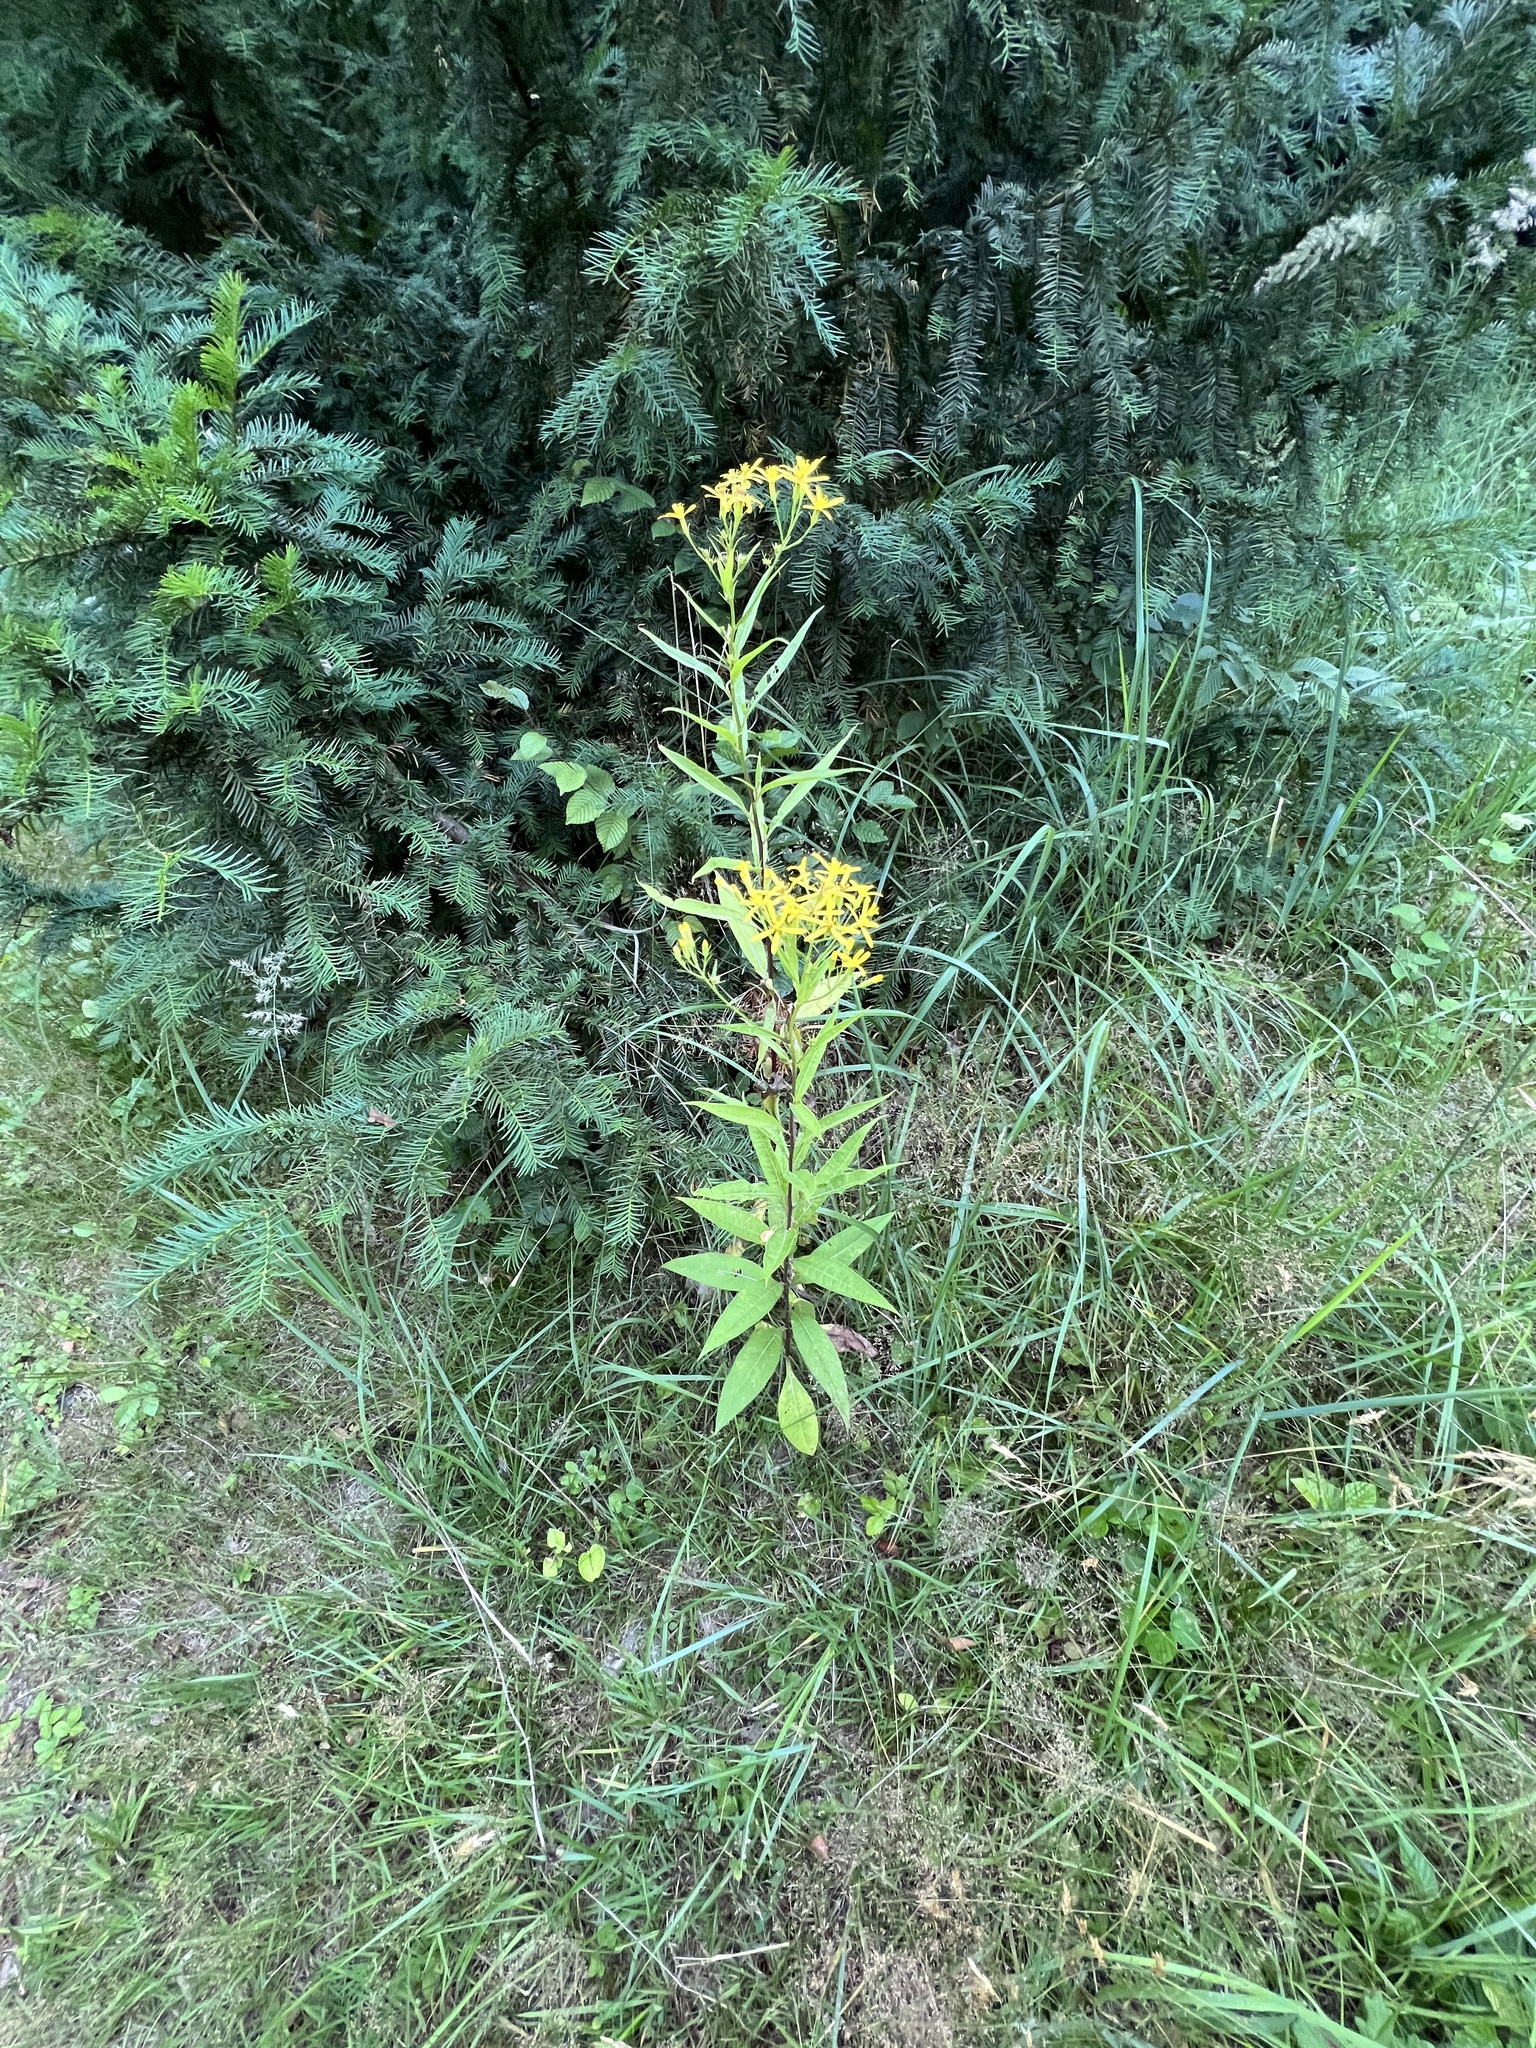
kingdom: Plantae
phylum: Tracheophyta
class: Magnoliopsida
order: Asterales
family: Asteraceae
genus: Senecio
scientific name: Senecio ovatus
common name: Wood ragwort
